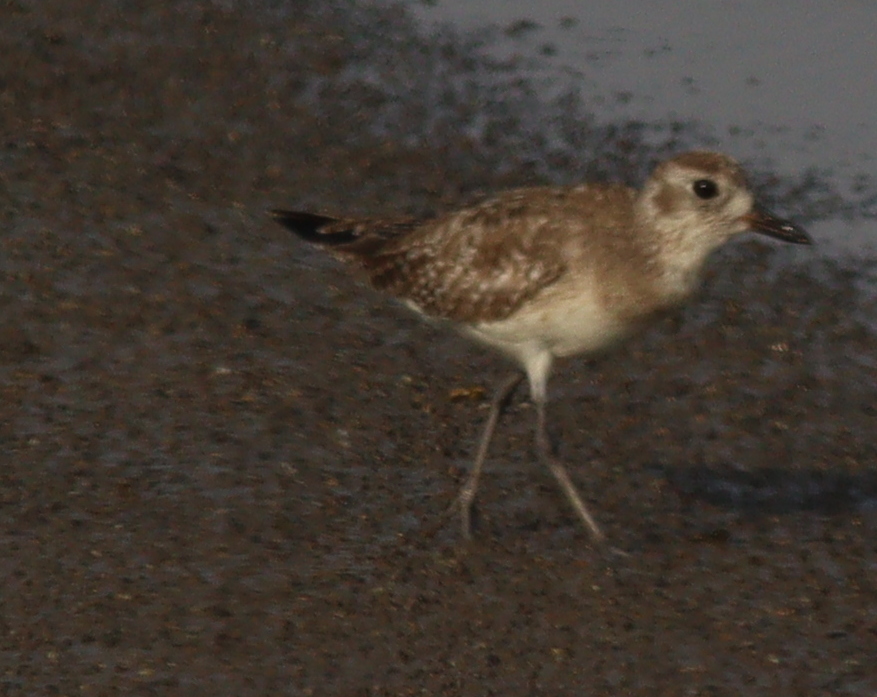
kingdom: Animalia
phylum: Chordata
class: Aves
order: Charadriiformes
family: Charadriidae
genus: Pluvialis
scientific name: Pluvialis squatarola
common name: Grey plover
